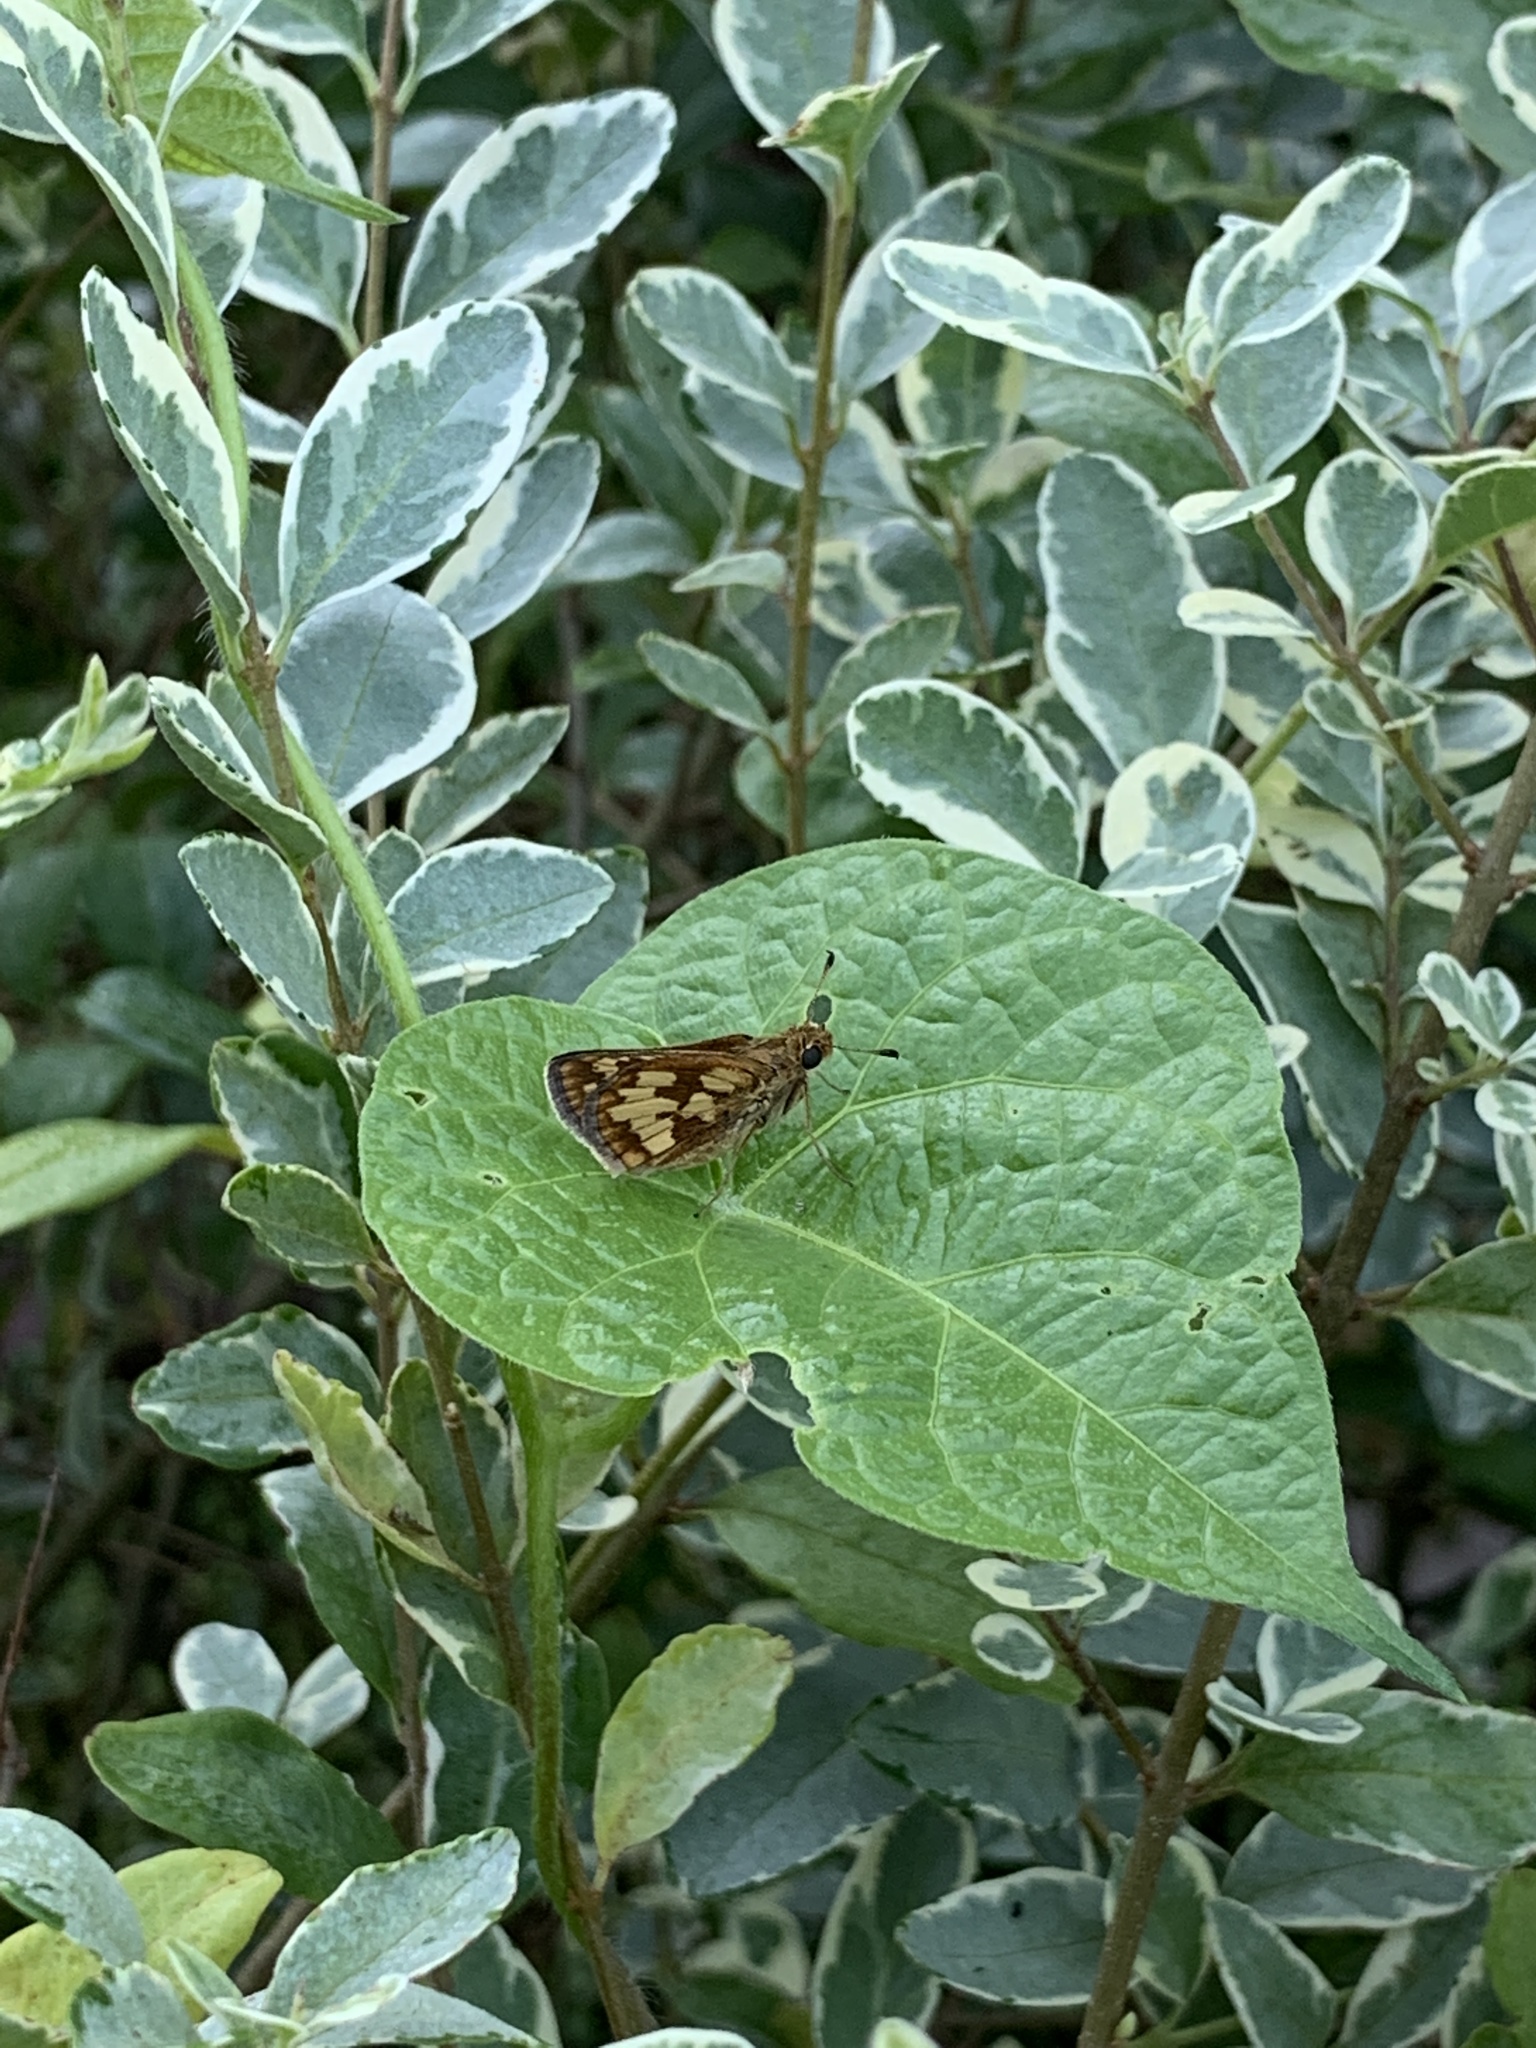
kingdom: Animalia
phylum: Arthropoda
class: Insecta
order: Lepidoptera
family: Hesperiidae
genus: Polites
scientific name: Polites coras
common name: Peck's skipper
